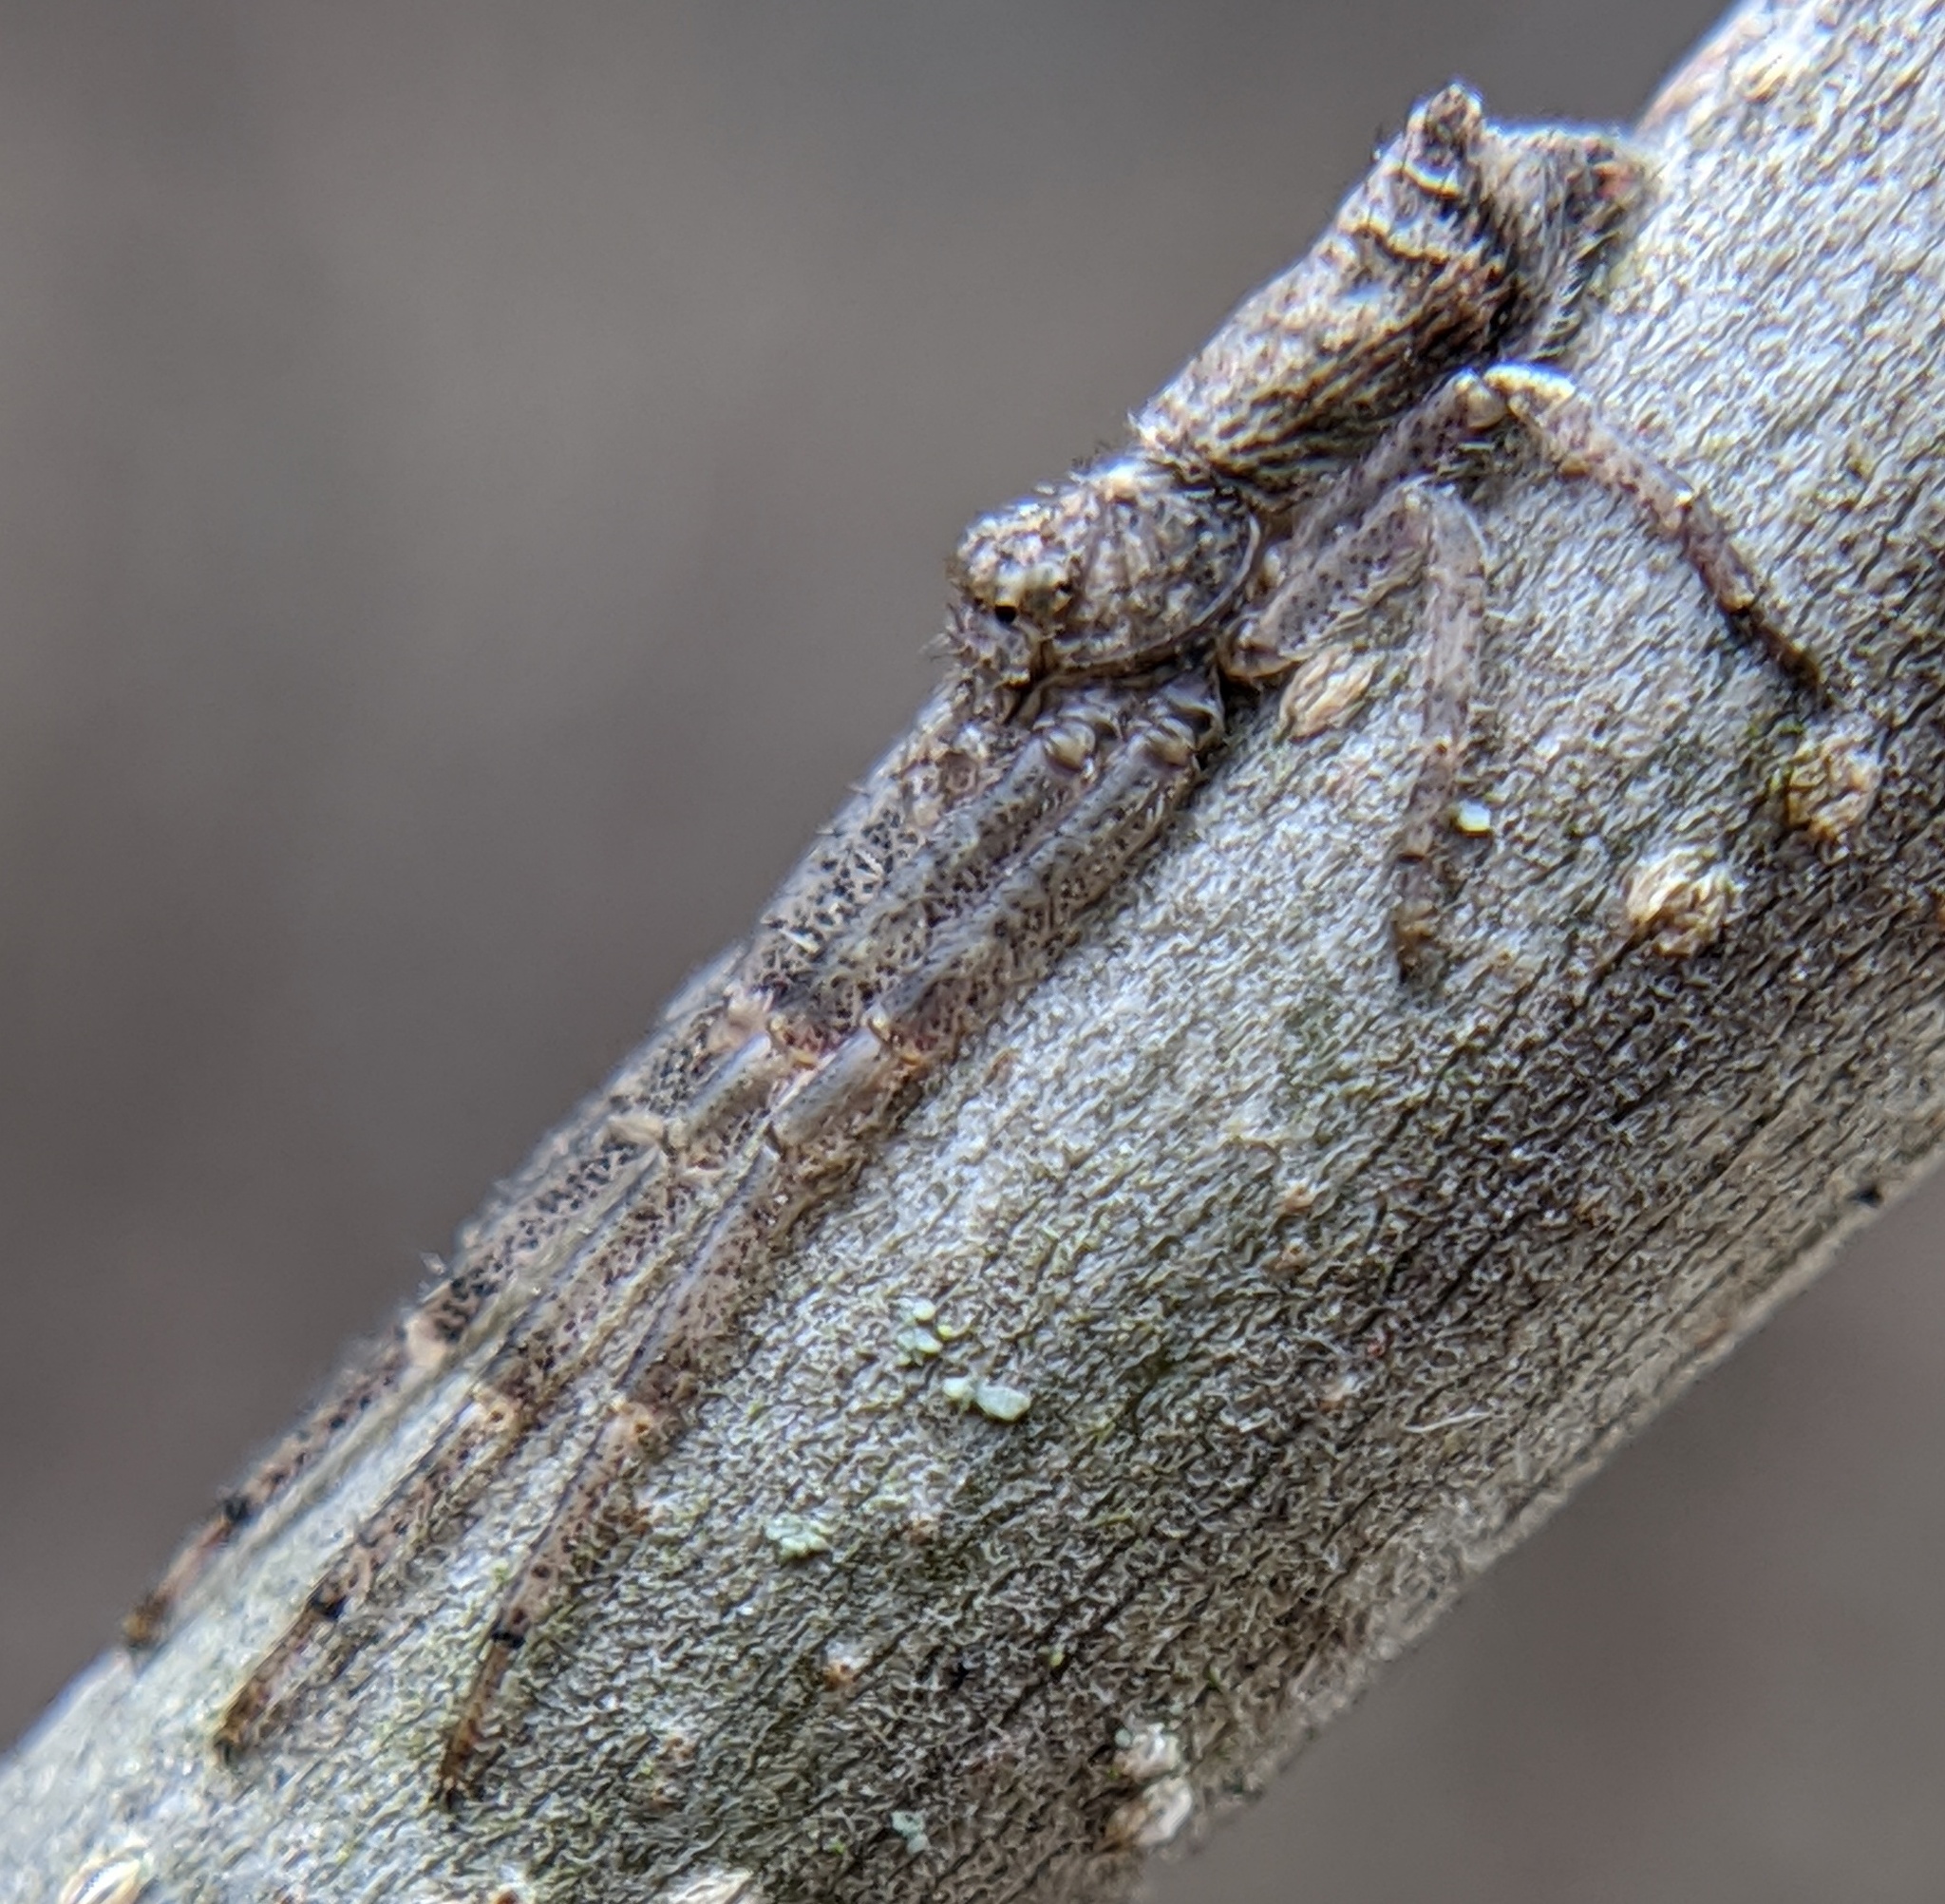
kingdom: Animalia
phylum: Arthropoda
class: Arachnida
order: Araneae
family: Thomisidae
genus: Tmarus
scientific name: Tmarus angulatus
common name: Tuberculated crab spider
